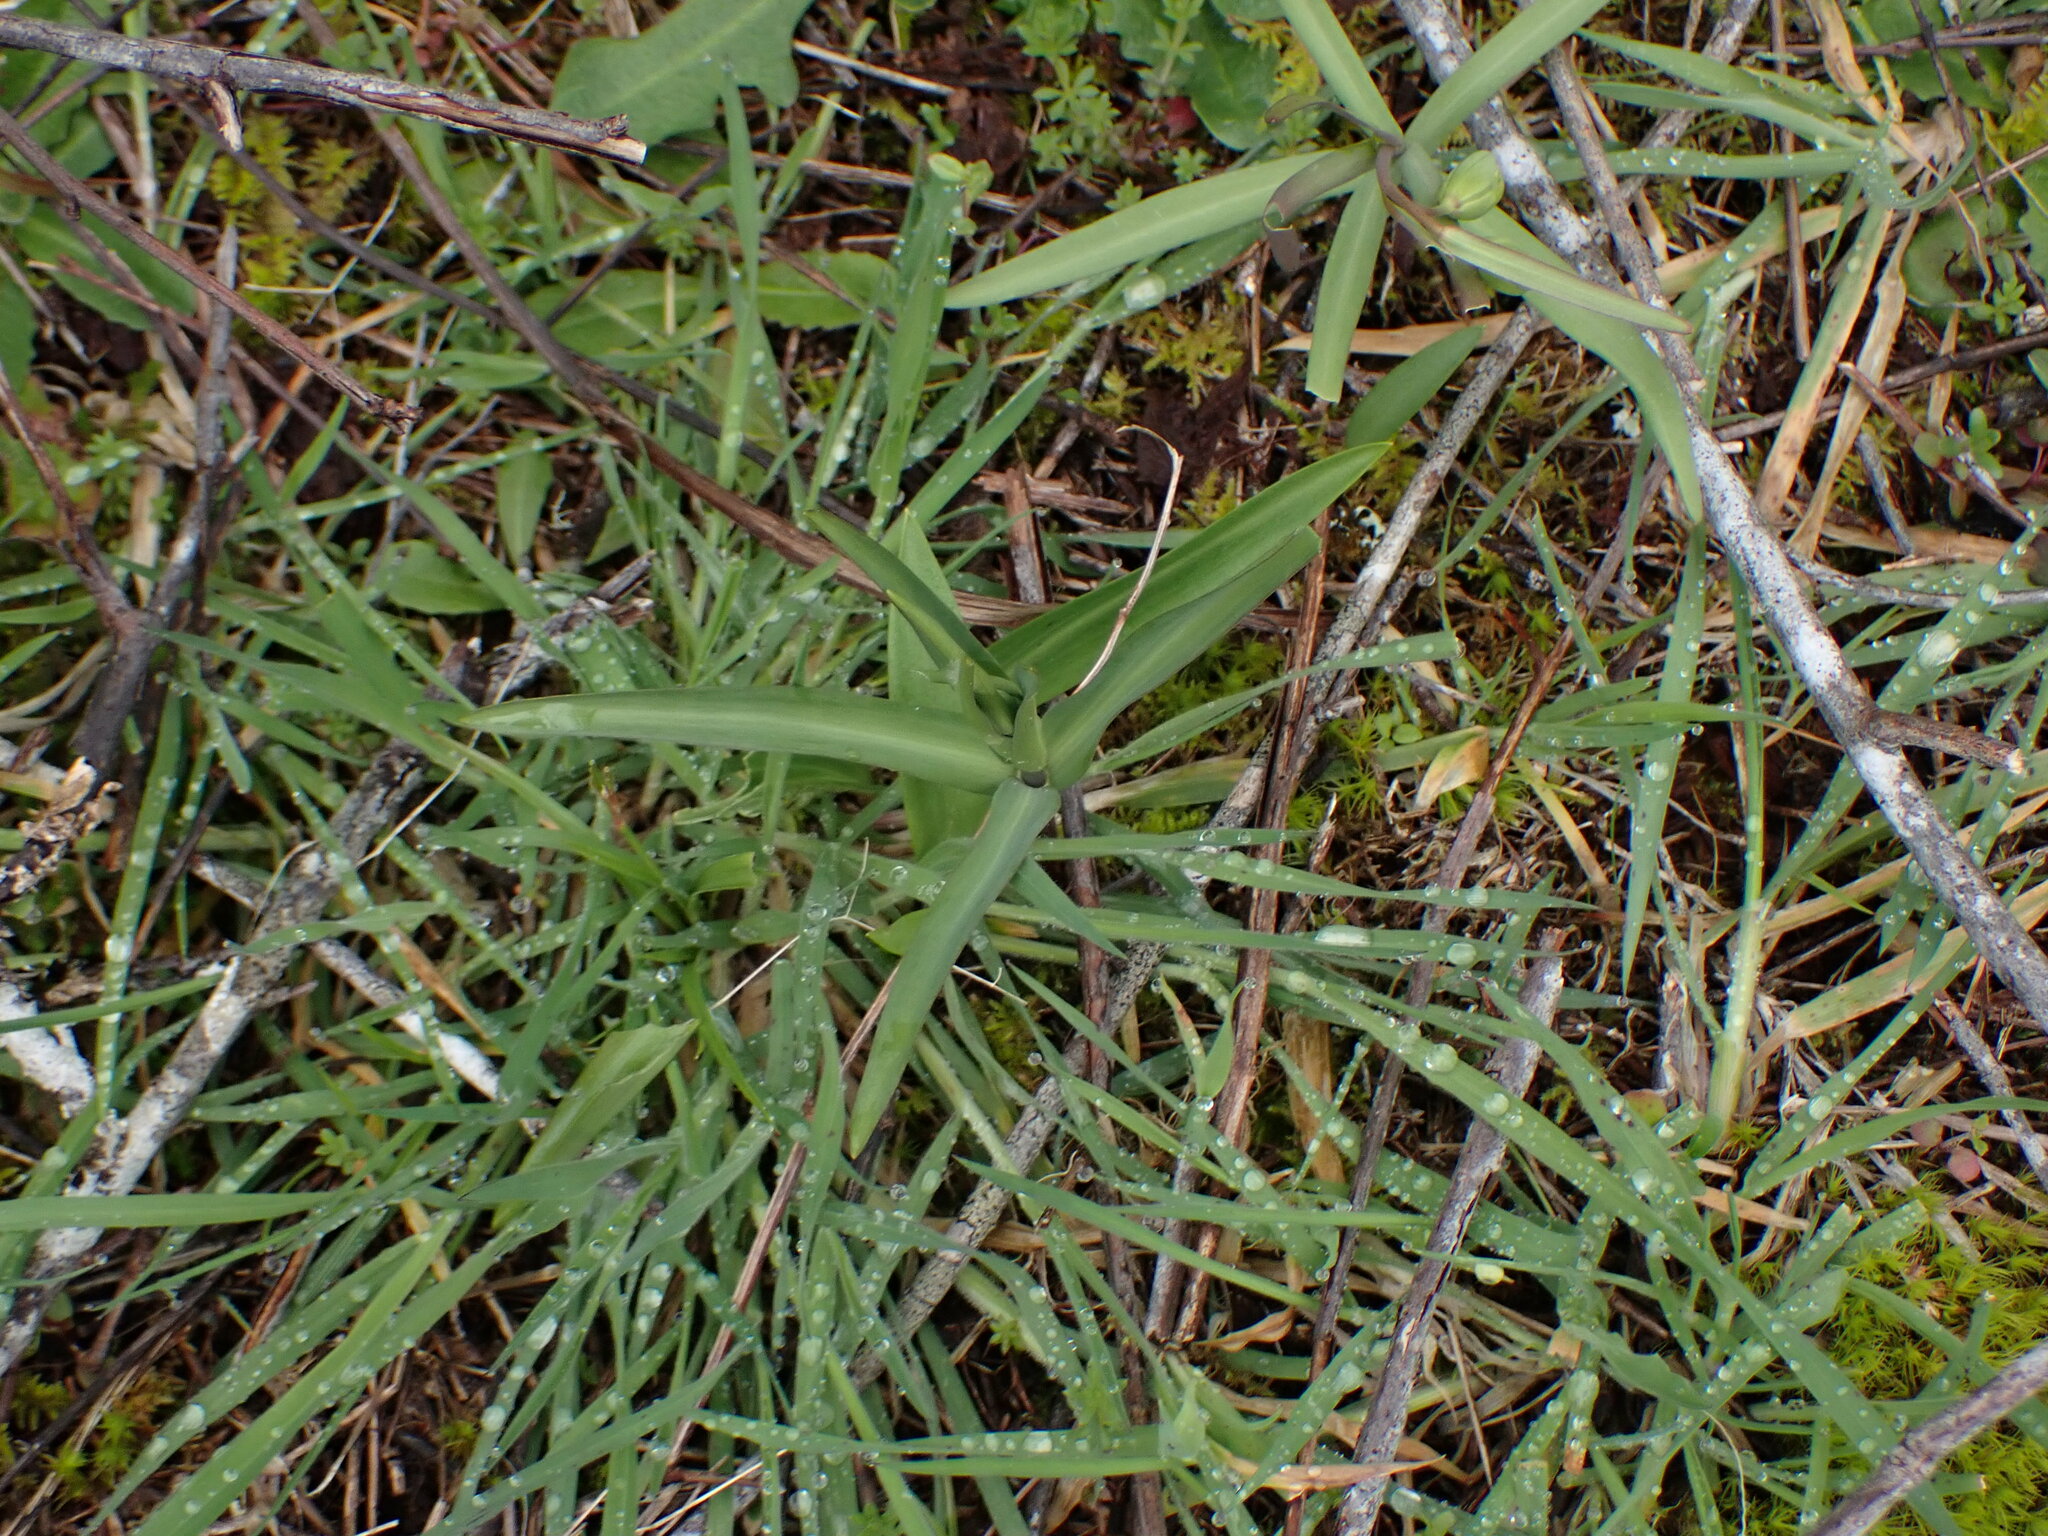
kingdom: Plantae
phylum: Tracheophyta
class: Liliopsida
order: Liliales
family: Liliaceae
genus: Fritillaria
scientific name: Fritillaria affinis
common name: Ojai fritillary
